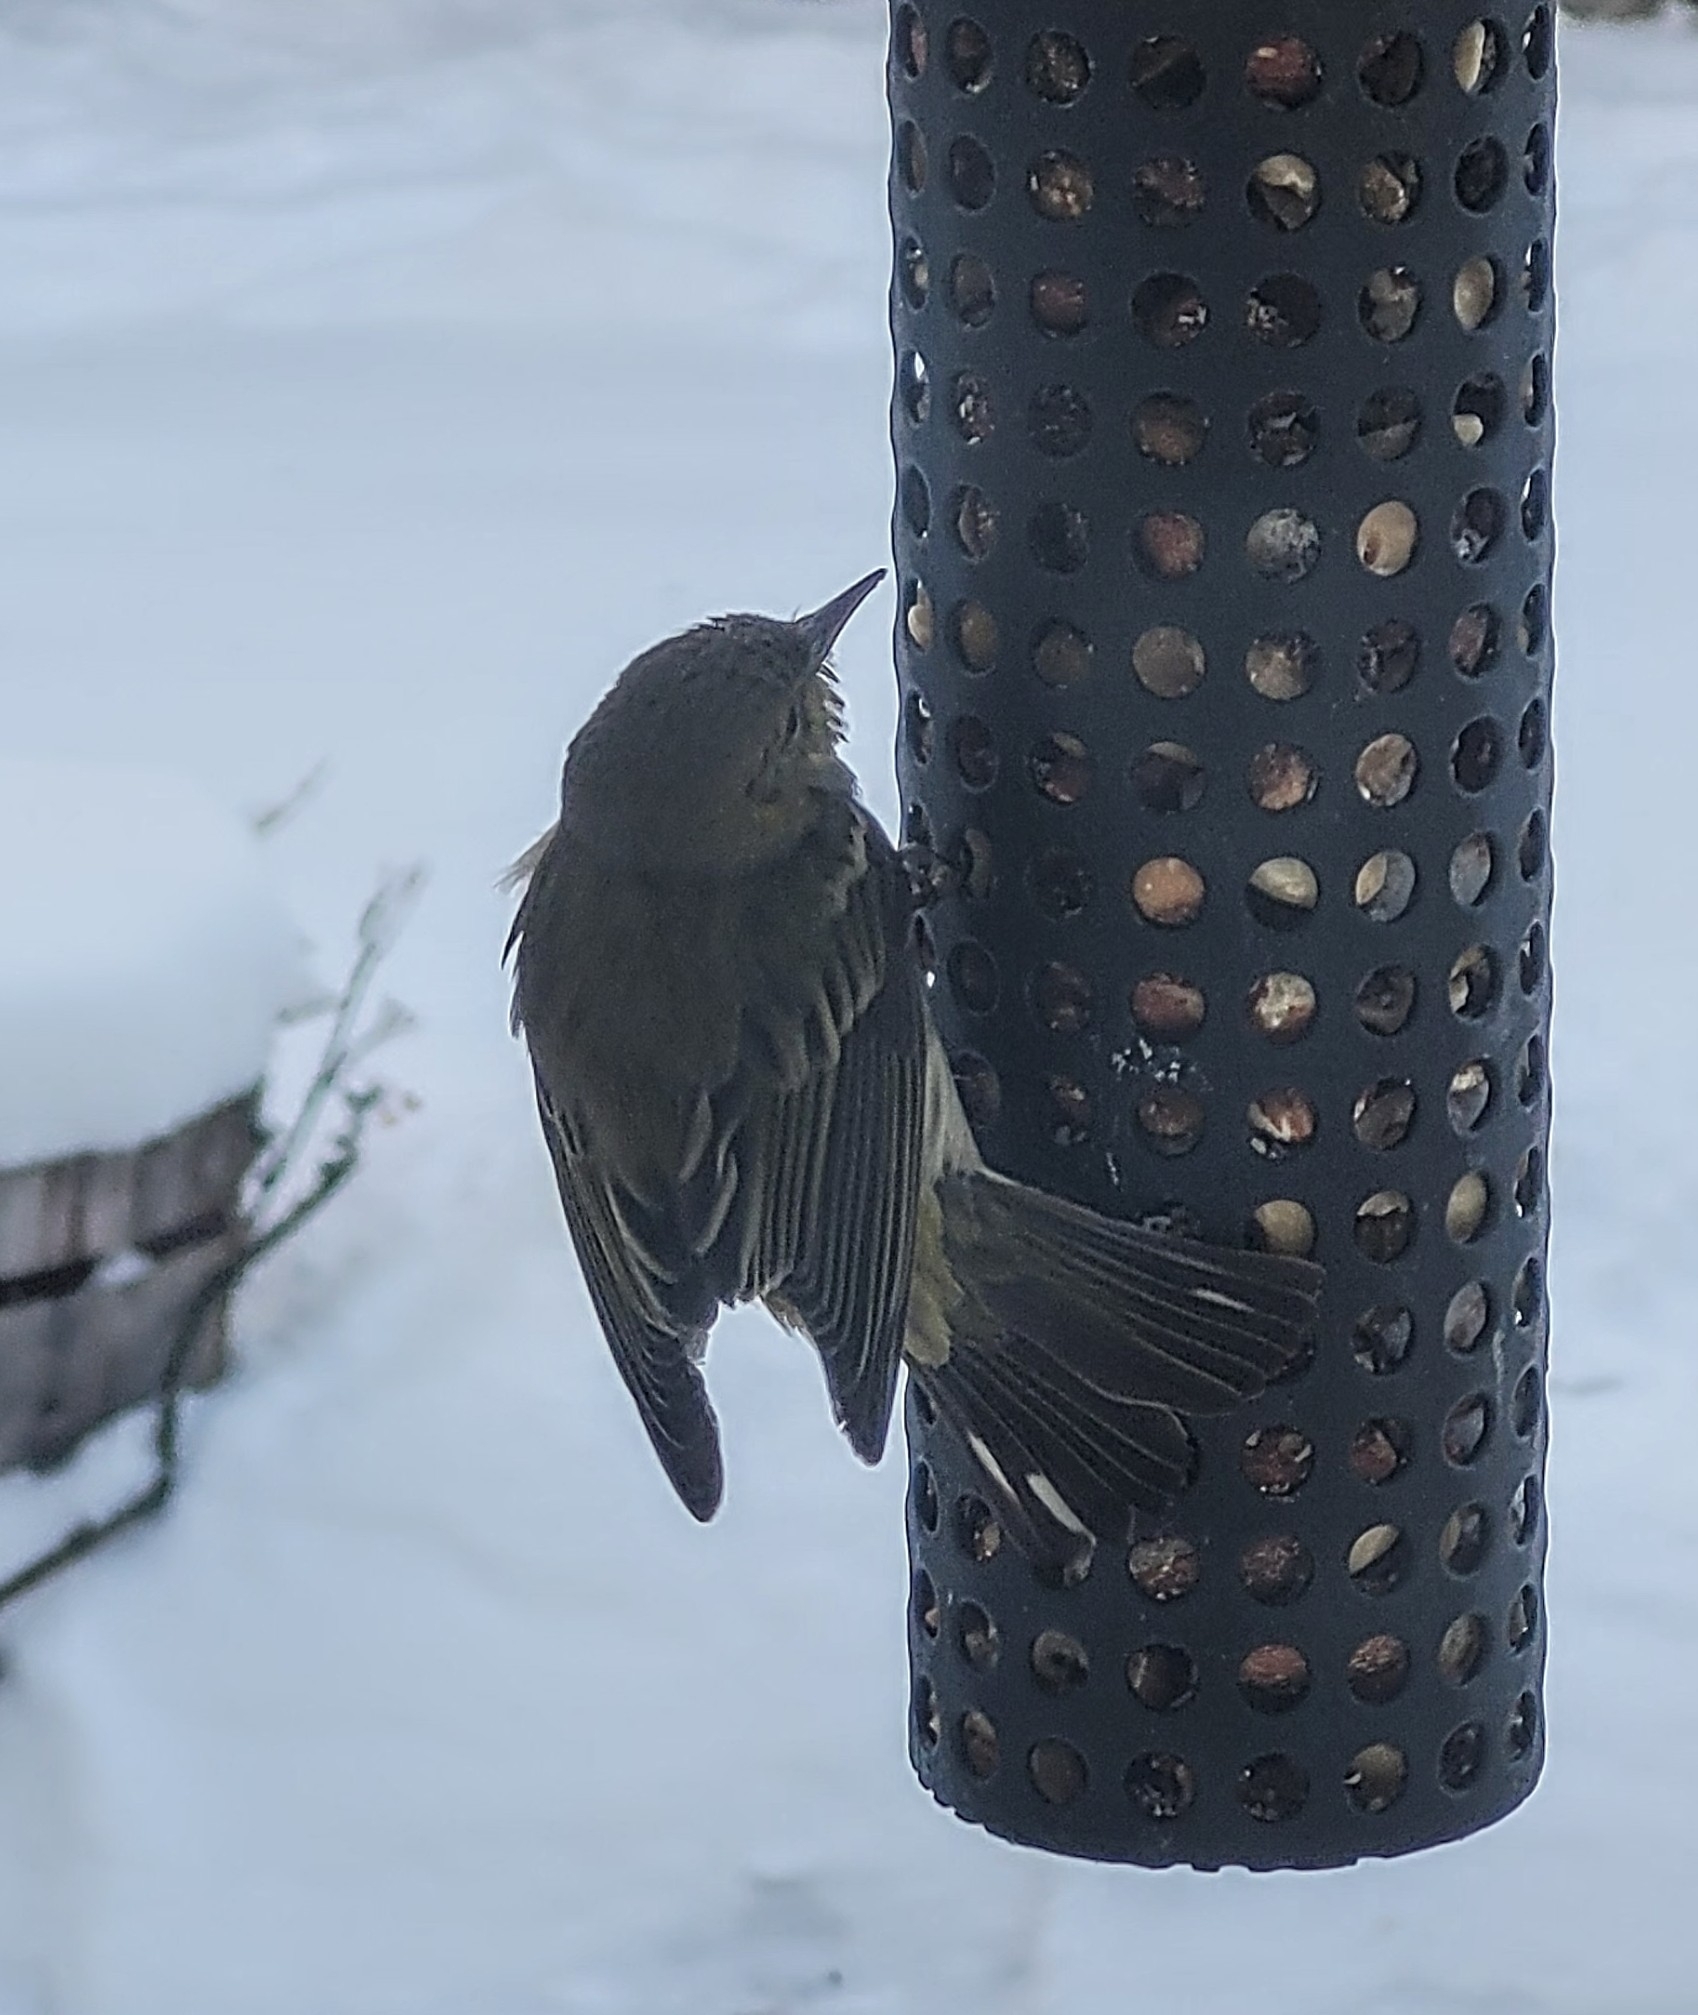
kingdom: Animalia
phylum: Chordata
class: Aves
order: Passeriformes
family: Parulidae
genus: Setophaga
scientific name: Setophaga tigrina
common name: Cape may warbler
